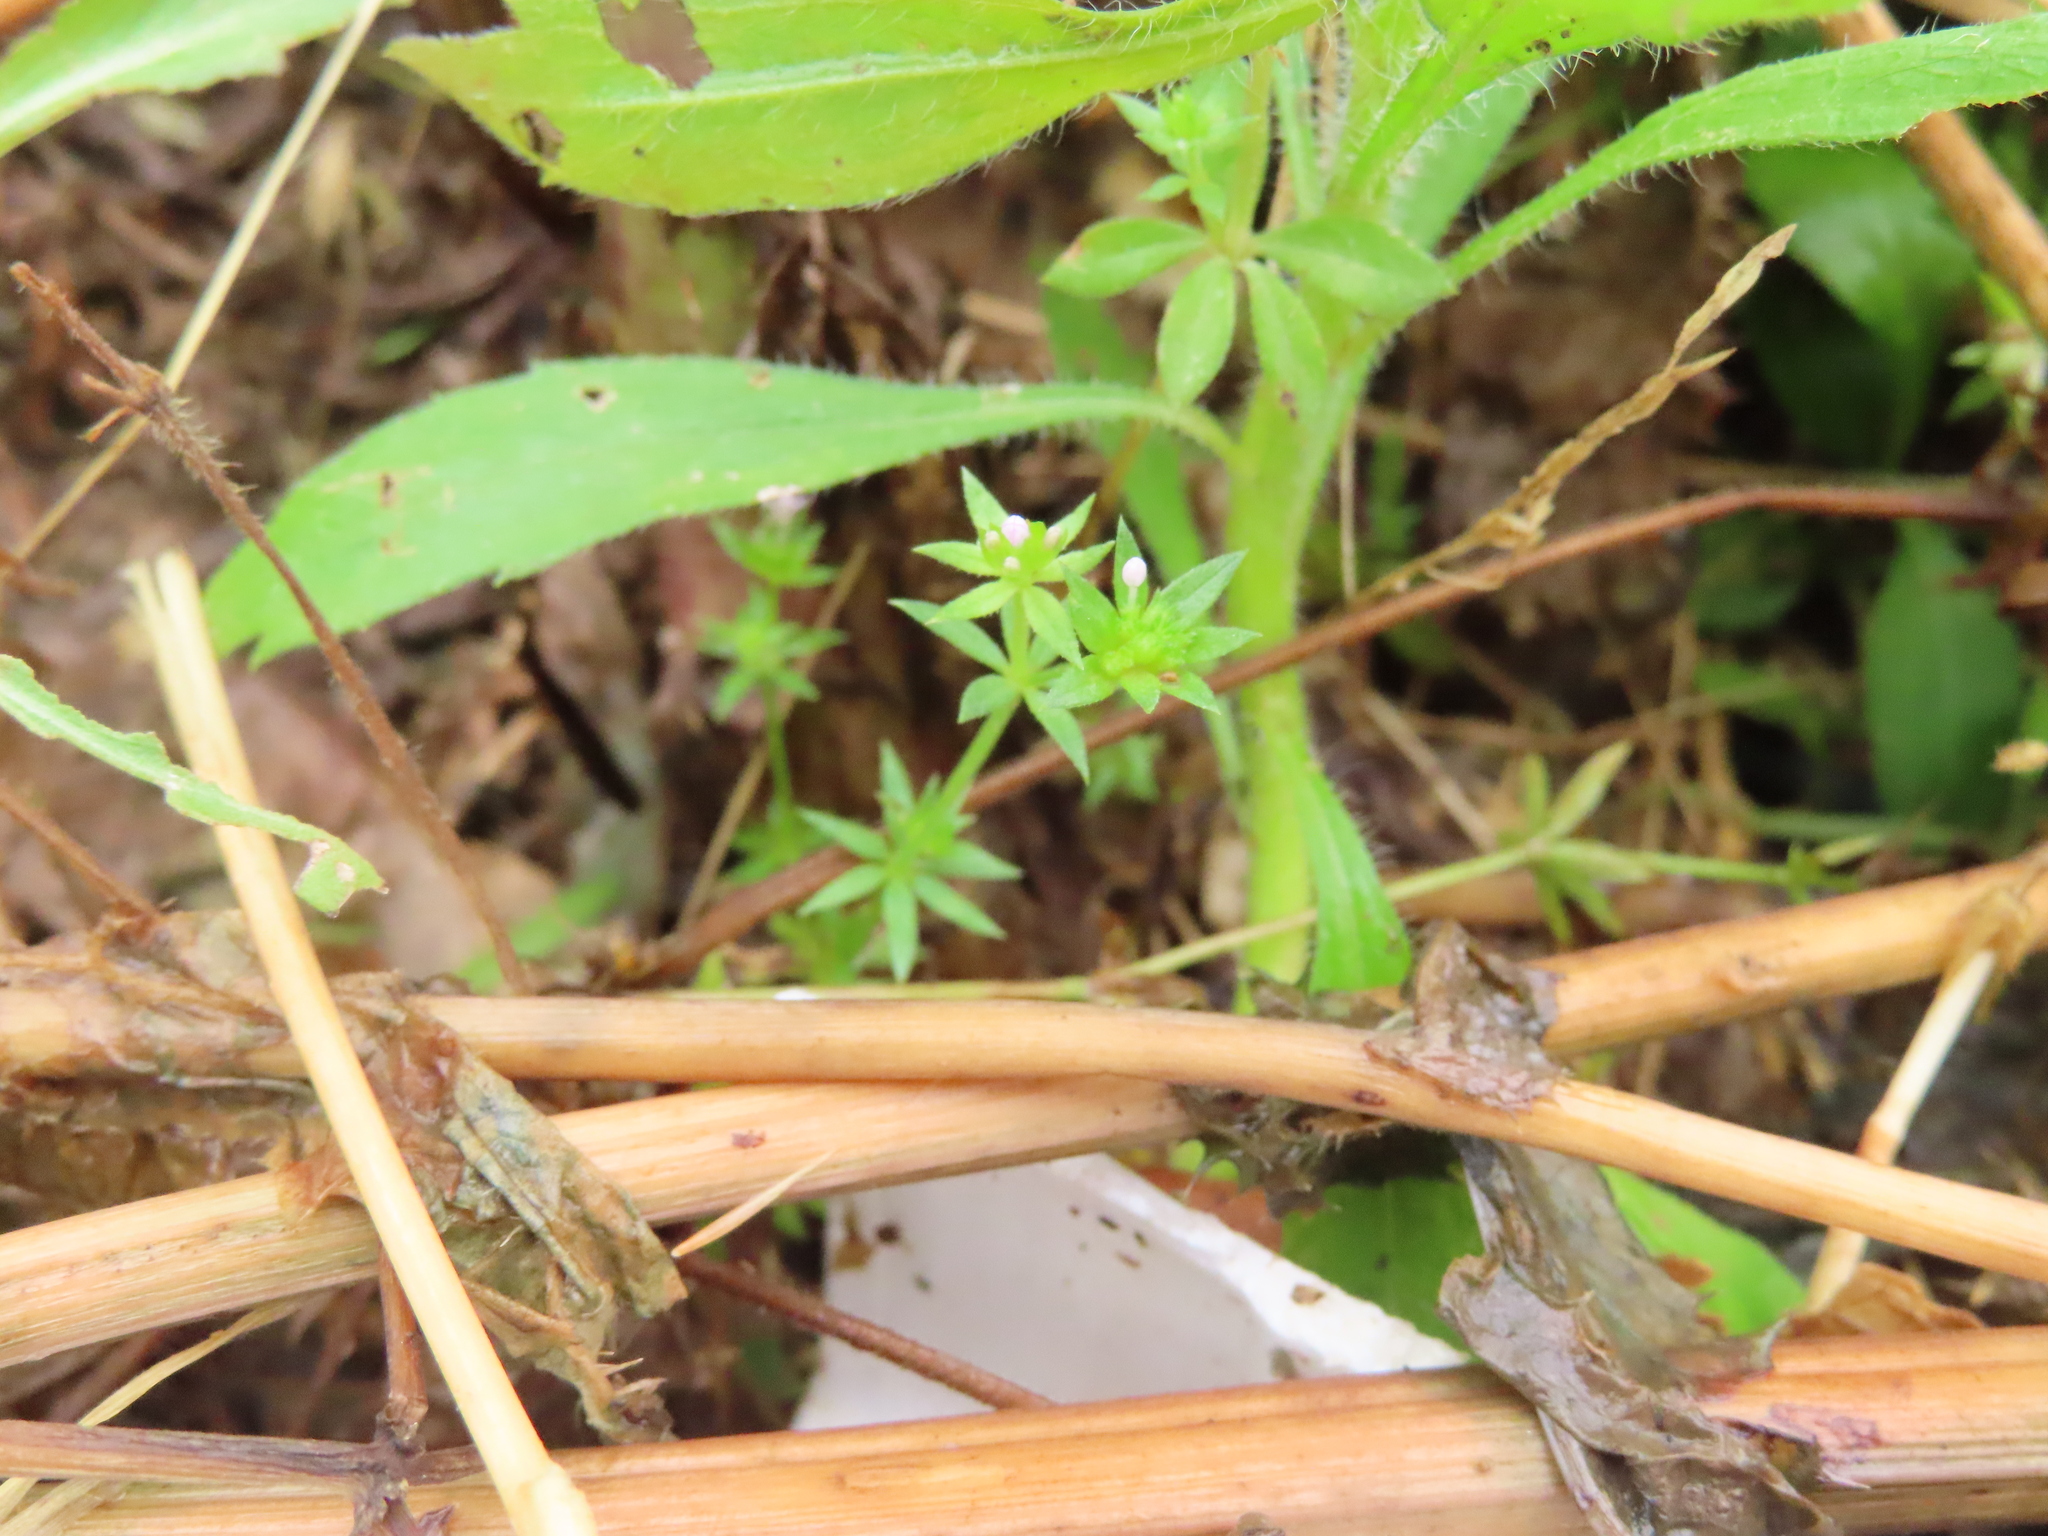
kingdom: Plantae
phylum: Tracheophyta
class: Magnoliopsida
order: Gentianales
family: Rubiaceae
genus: Sherardia
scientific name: Sherardia arvensis
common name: Field madder
